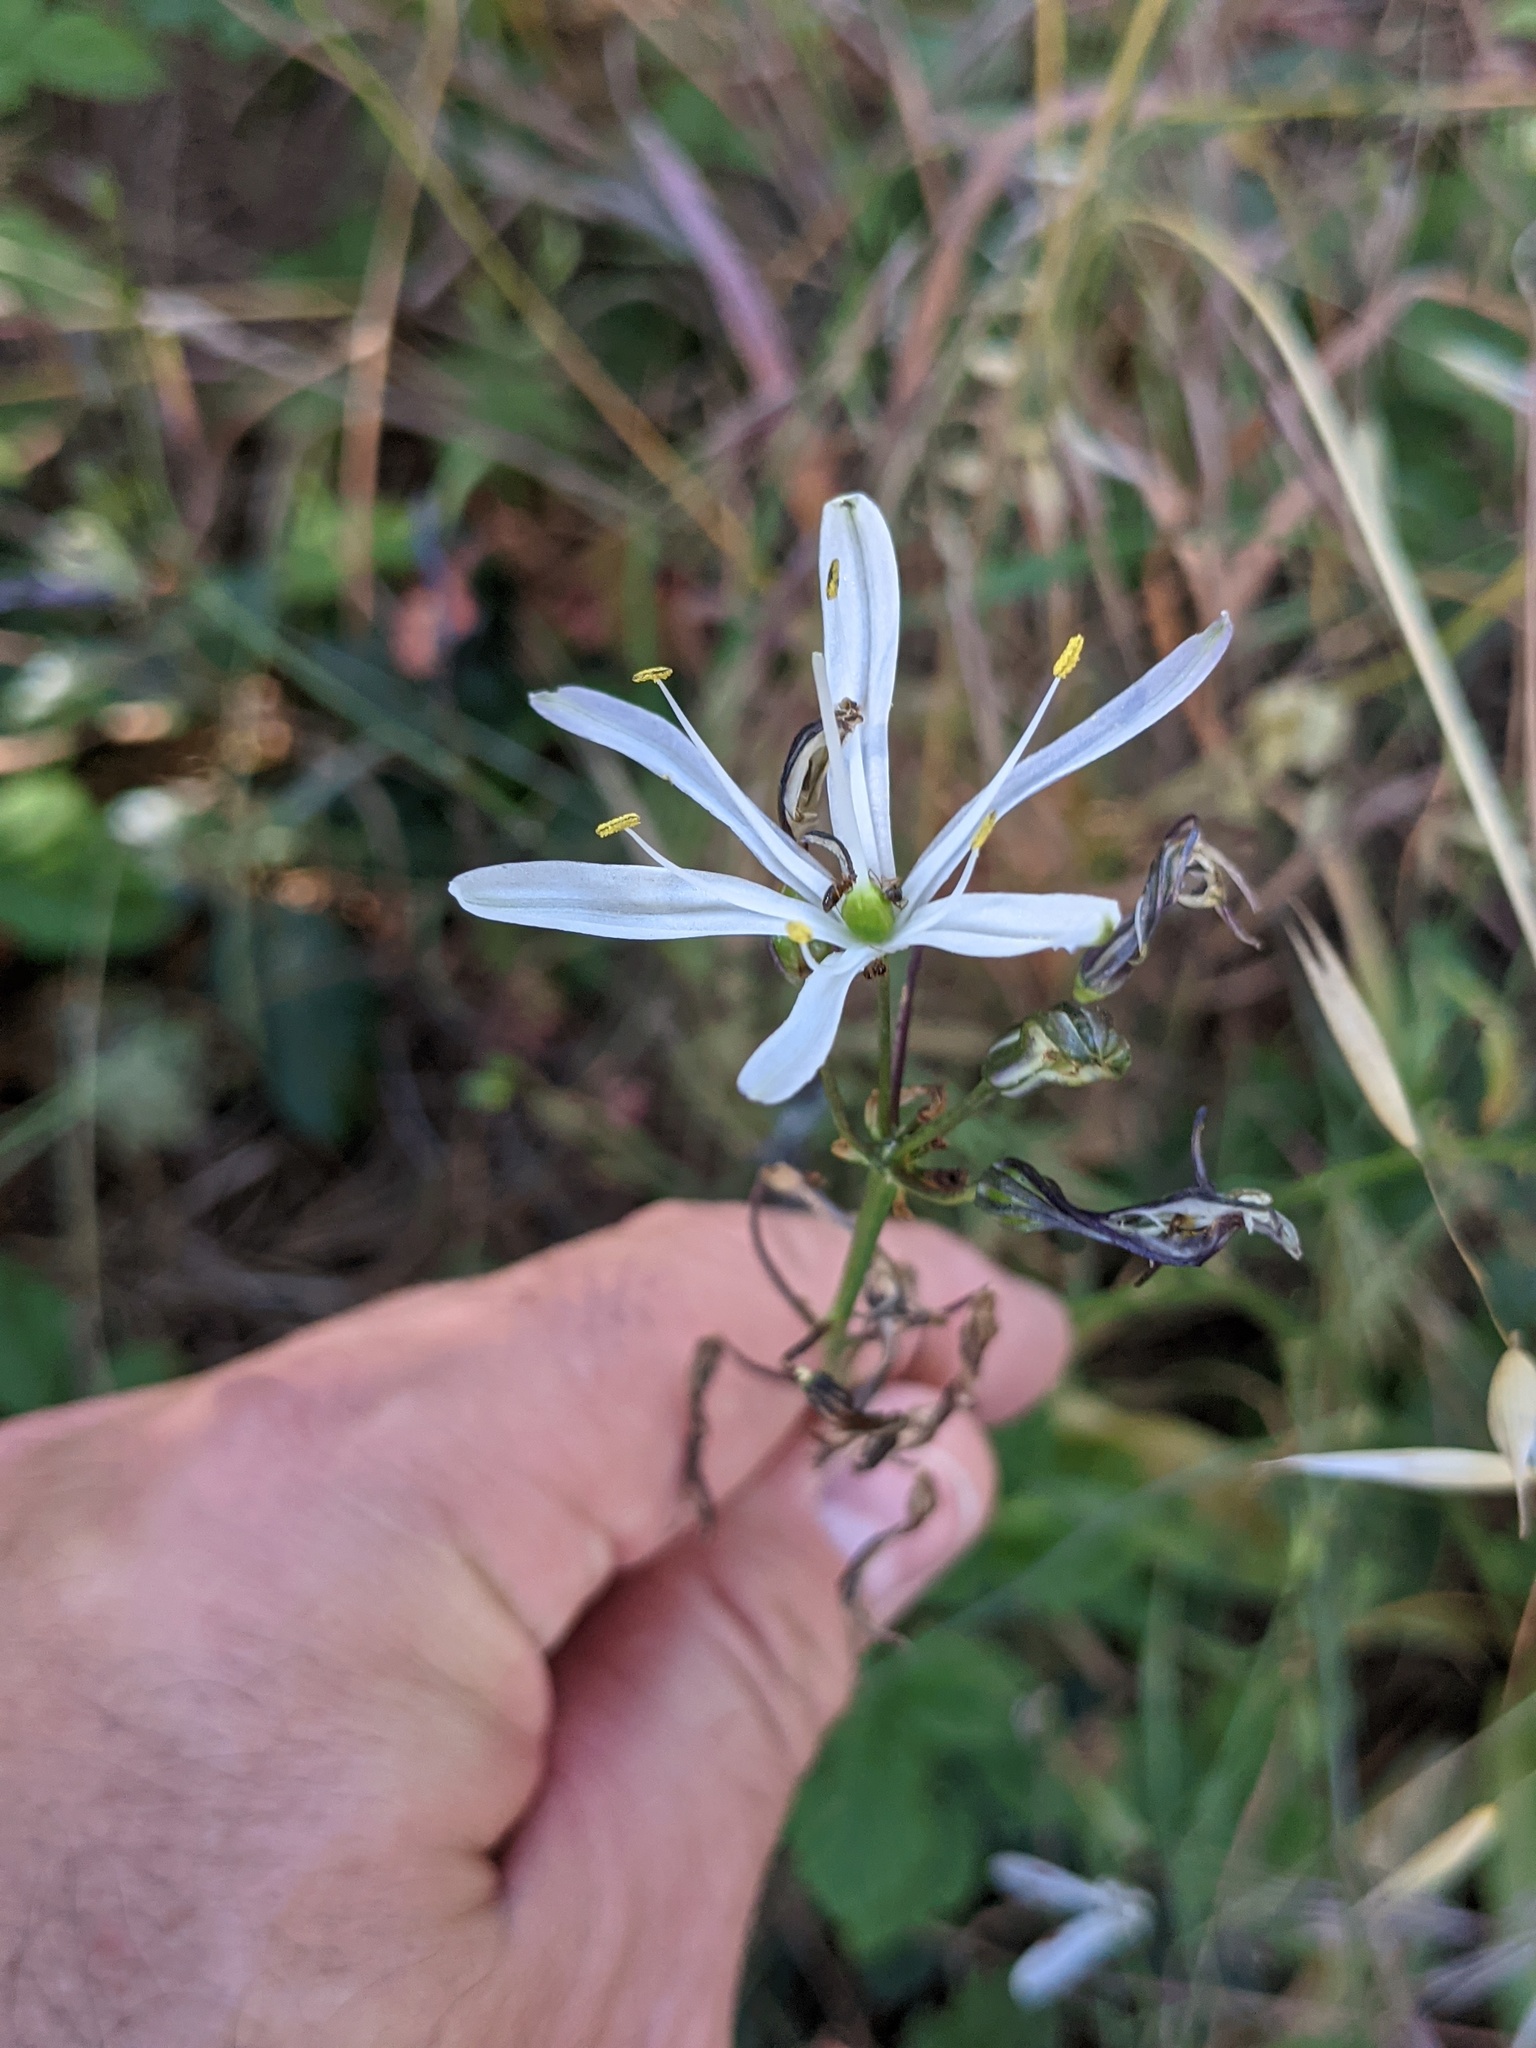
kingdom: Plantae
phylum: Tracheophyta
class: Liliopsida
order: Asparagales
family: Asparagaceae
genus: Chlorogalum
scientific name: Chlorogalum pomeridianum
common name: Amole
